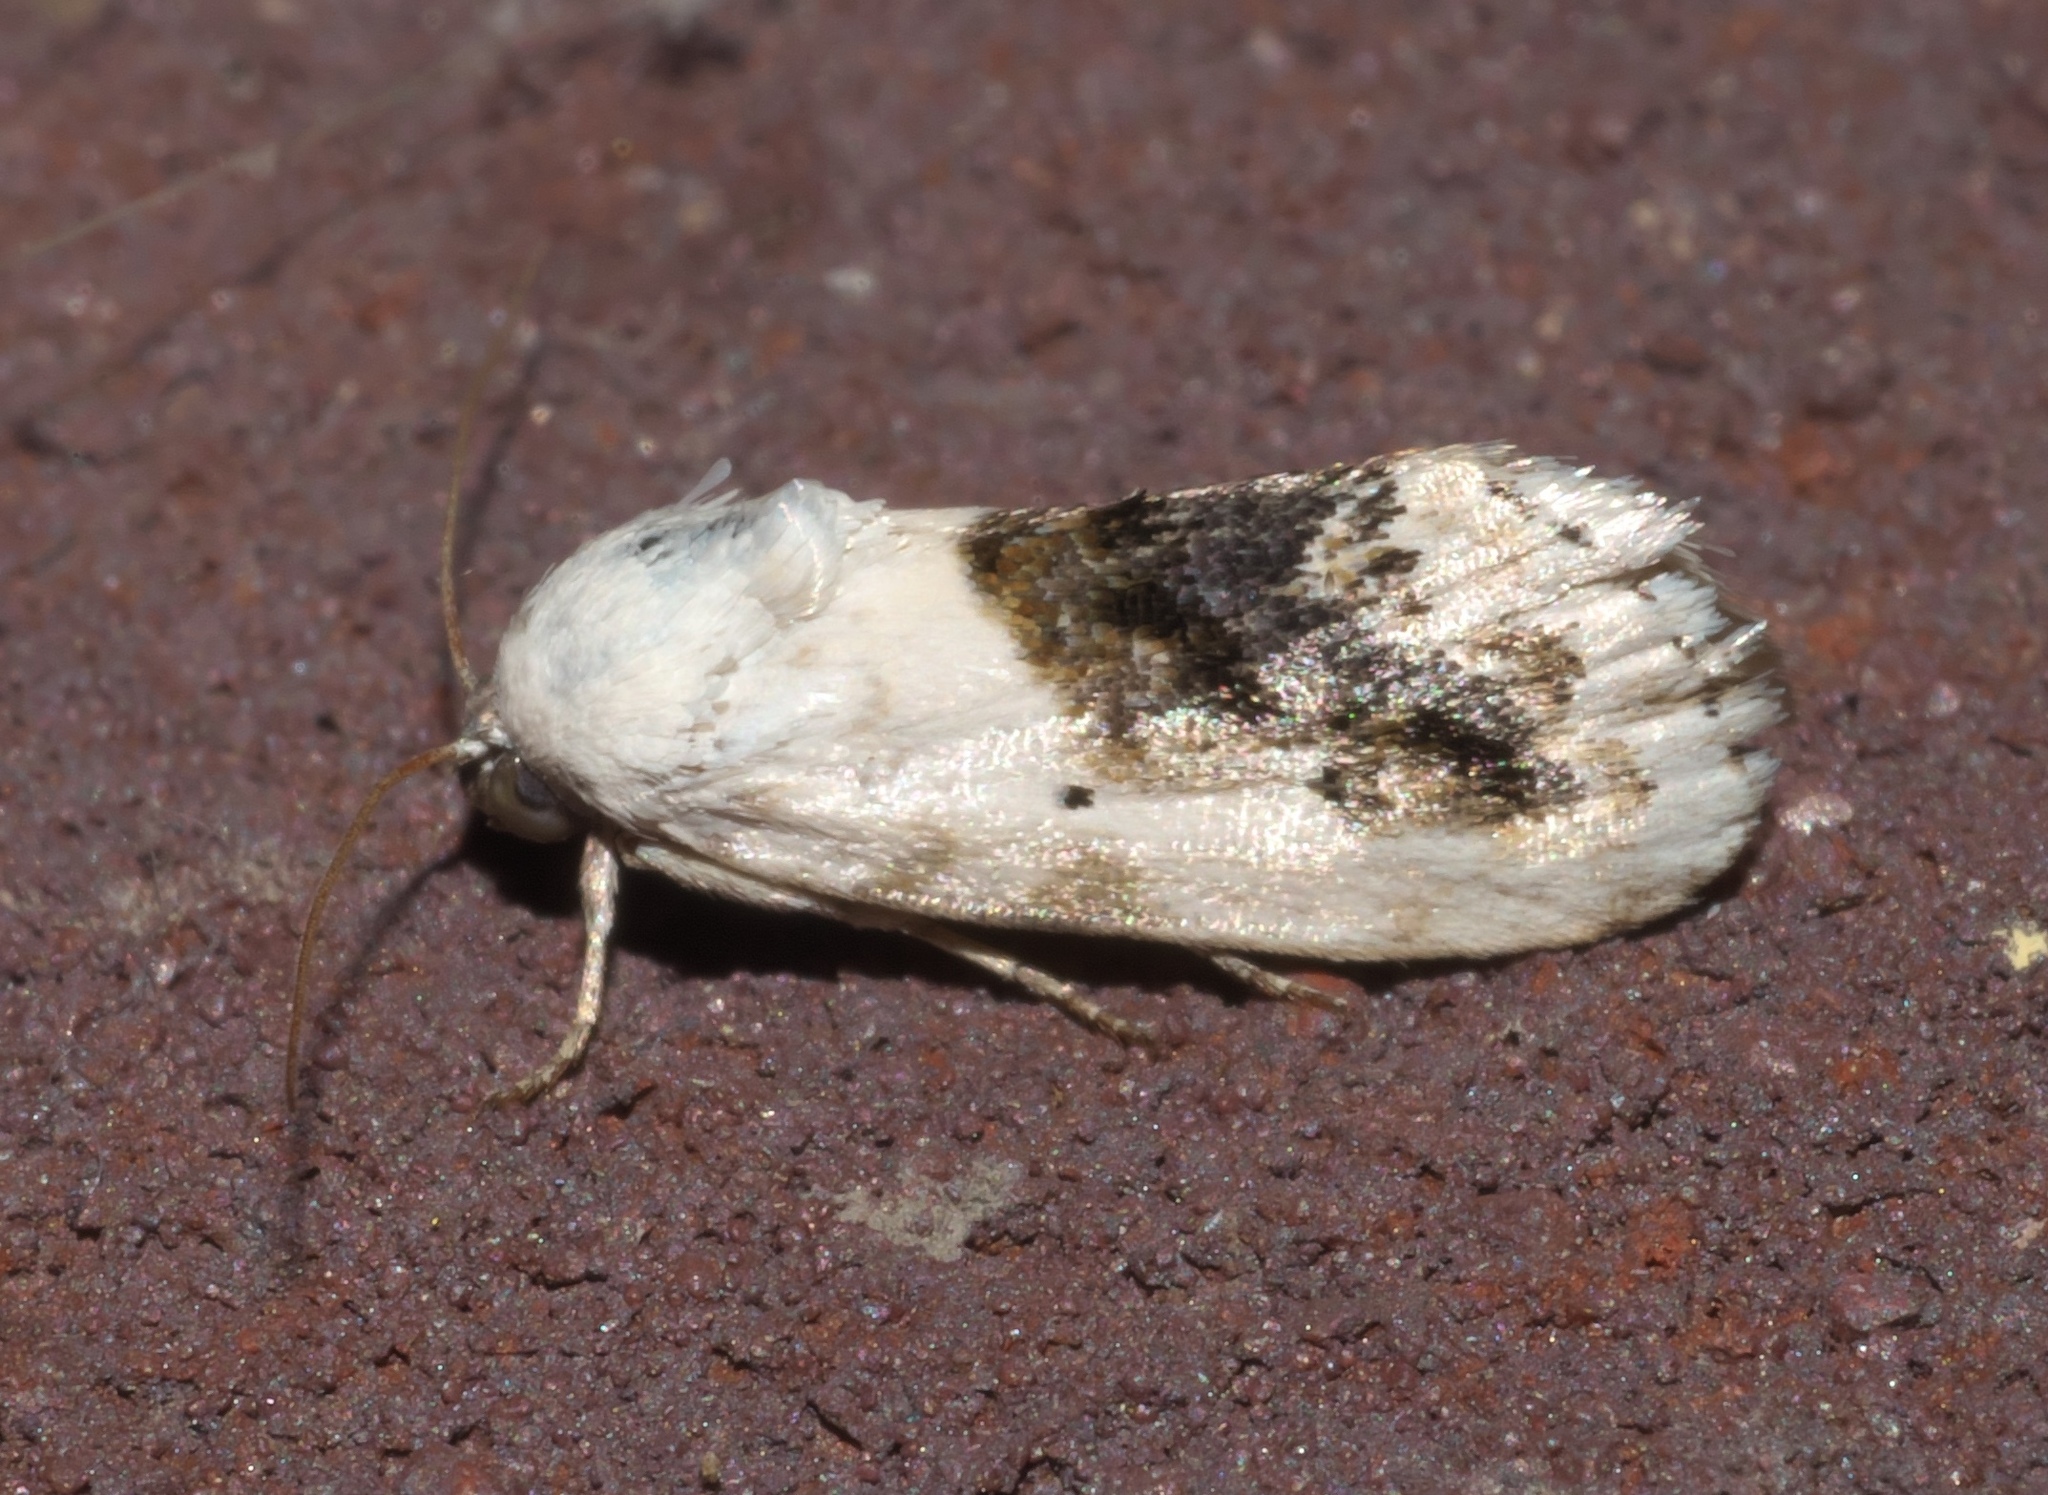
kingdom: Animalia
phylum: Arthropoda
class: Insecta
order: Lepidoptera
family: Noctuidae
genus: Acontia
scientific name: Acontia erastrioides
